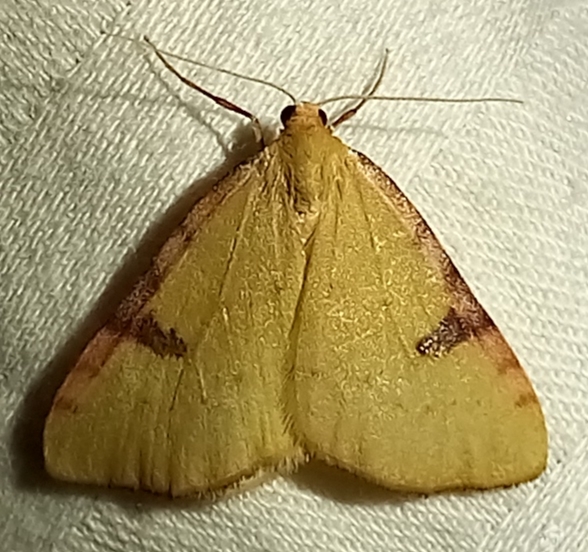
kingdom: Animalia
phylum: Arthropoda
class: Insecta
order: Lepidoptera
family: Geometridae
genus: Epiphryne
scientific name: Epiphryne xanthaspis
